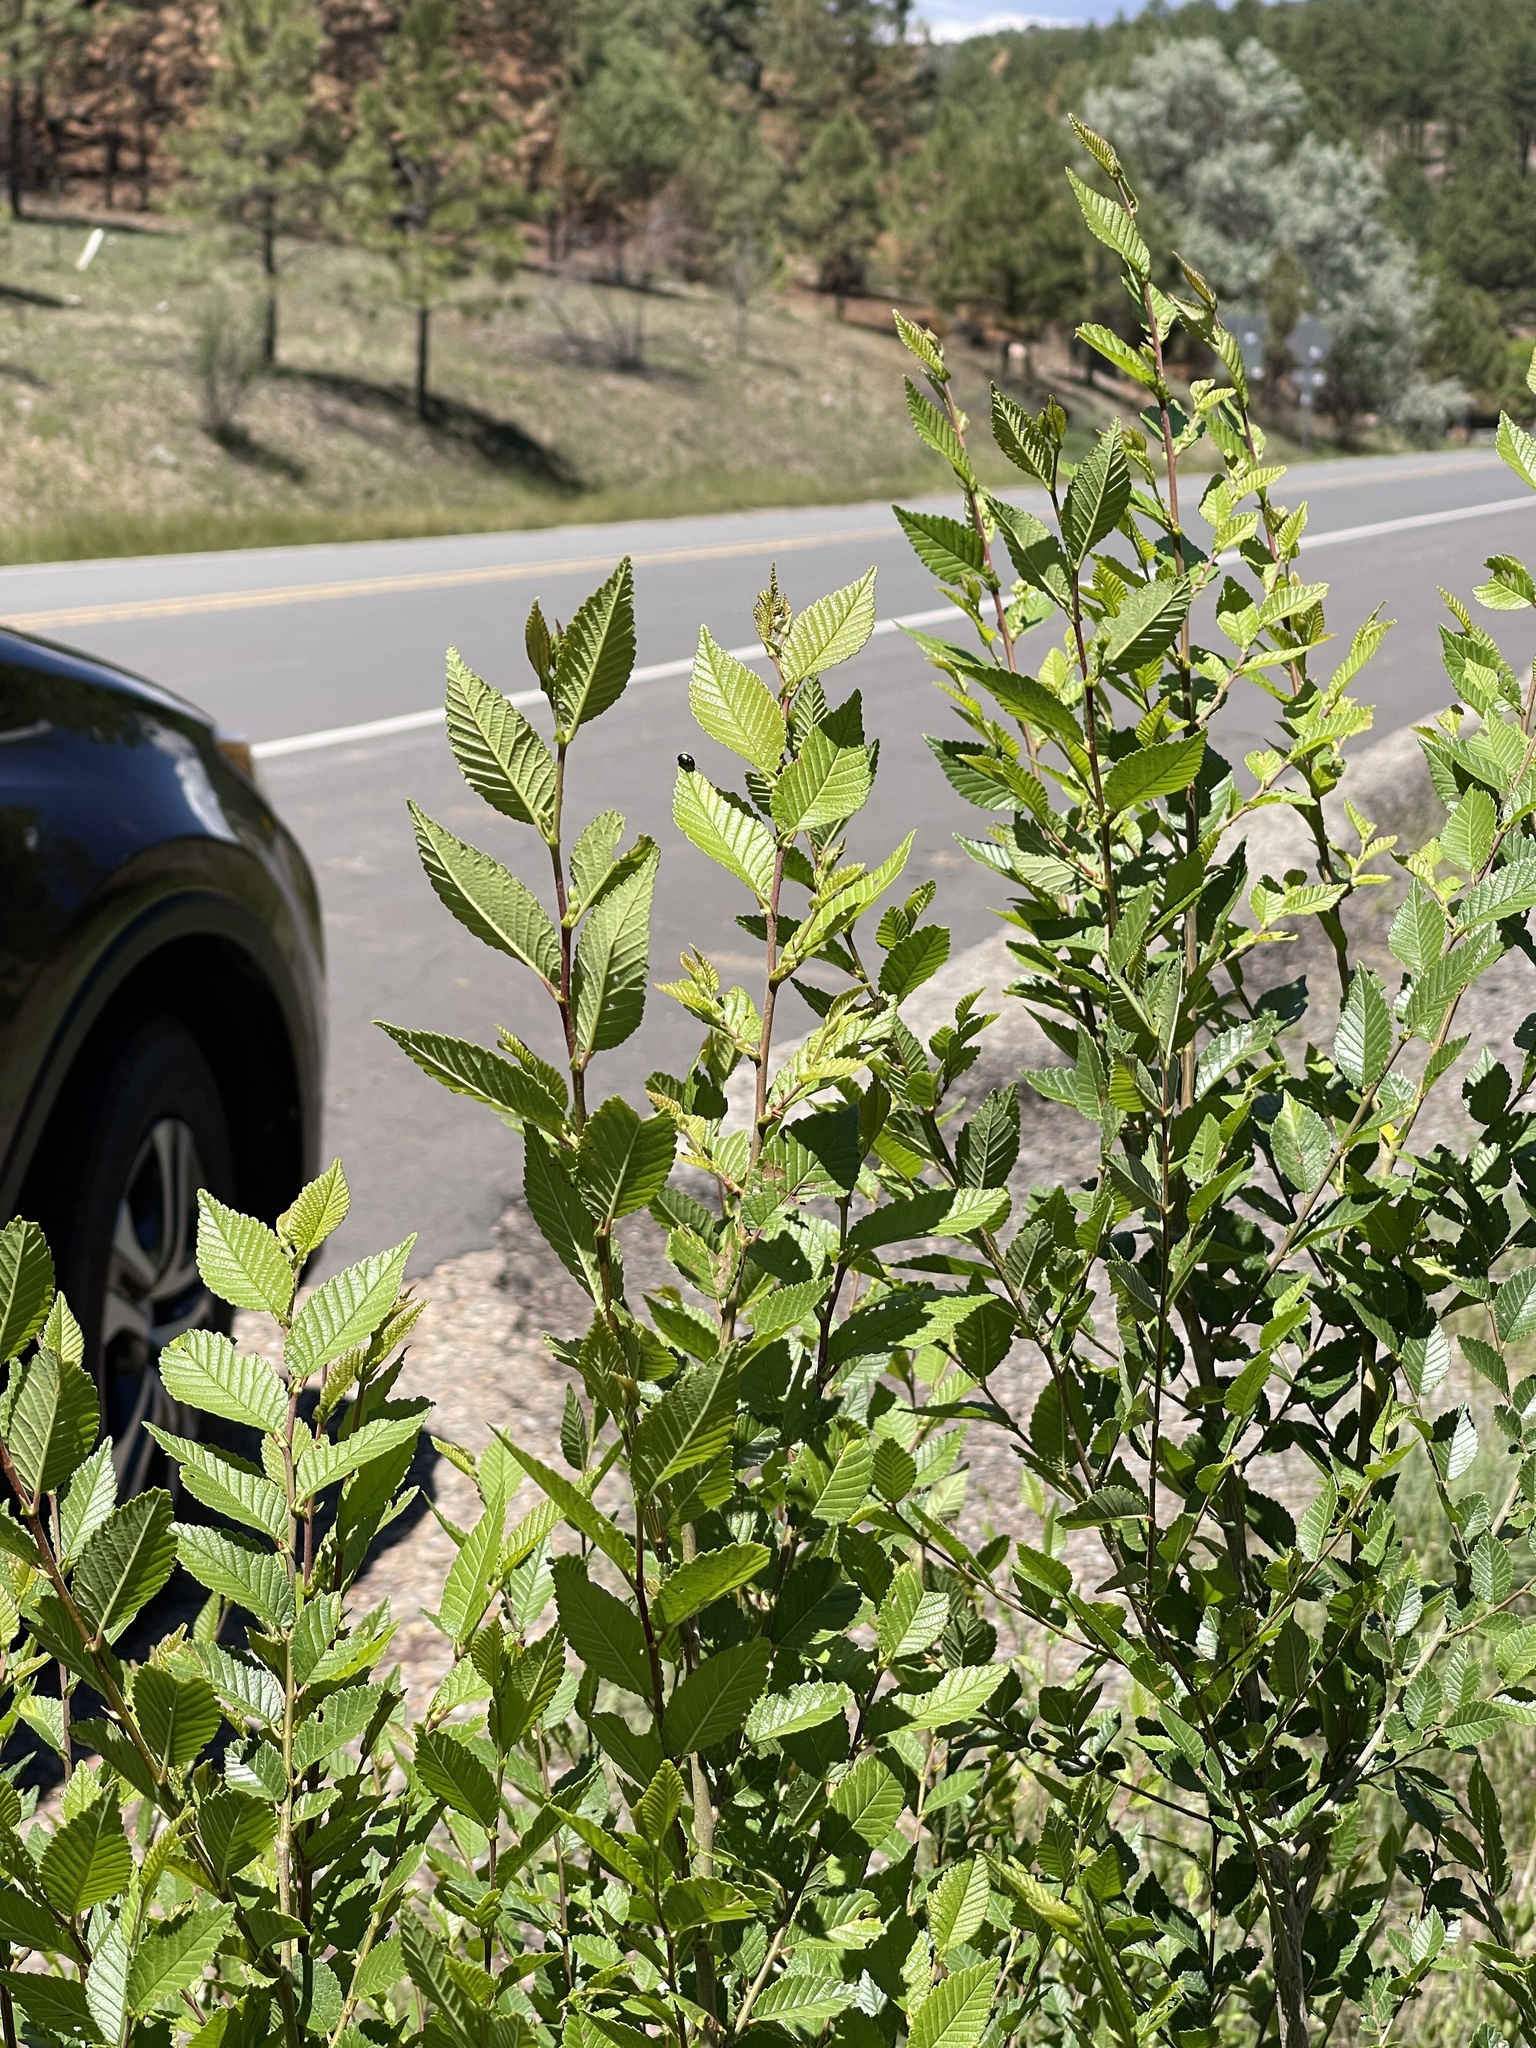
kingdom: Plantae
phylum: Tracheophyta
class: Magnoliopsida
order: Rosales
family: Ulmaceae
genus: Ulmus
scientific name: Ulmus pumila
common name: Siberian elm
